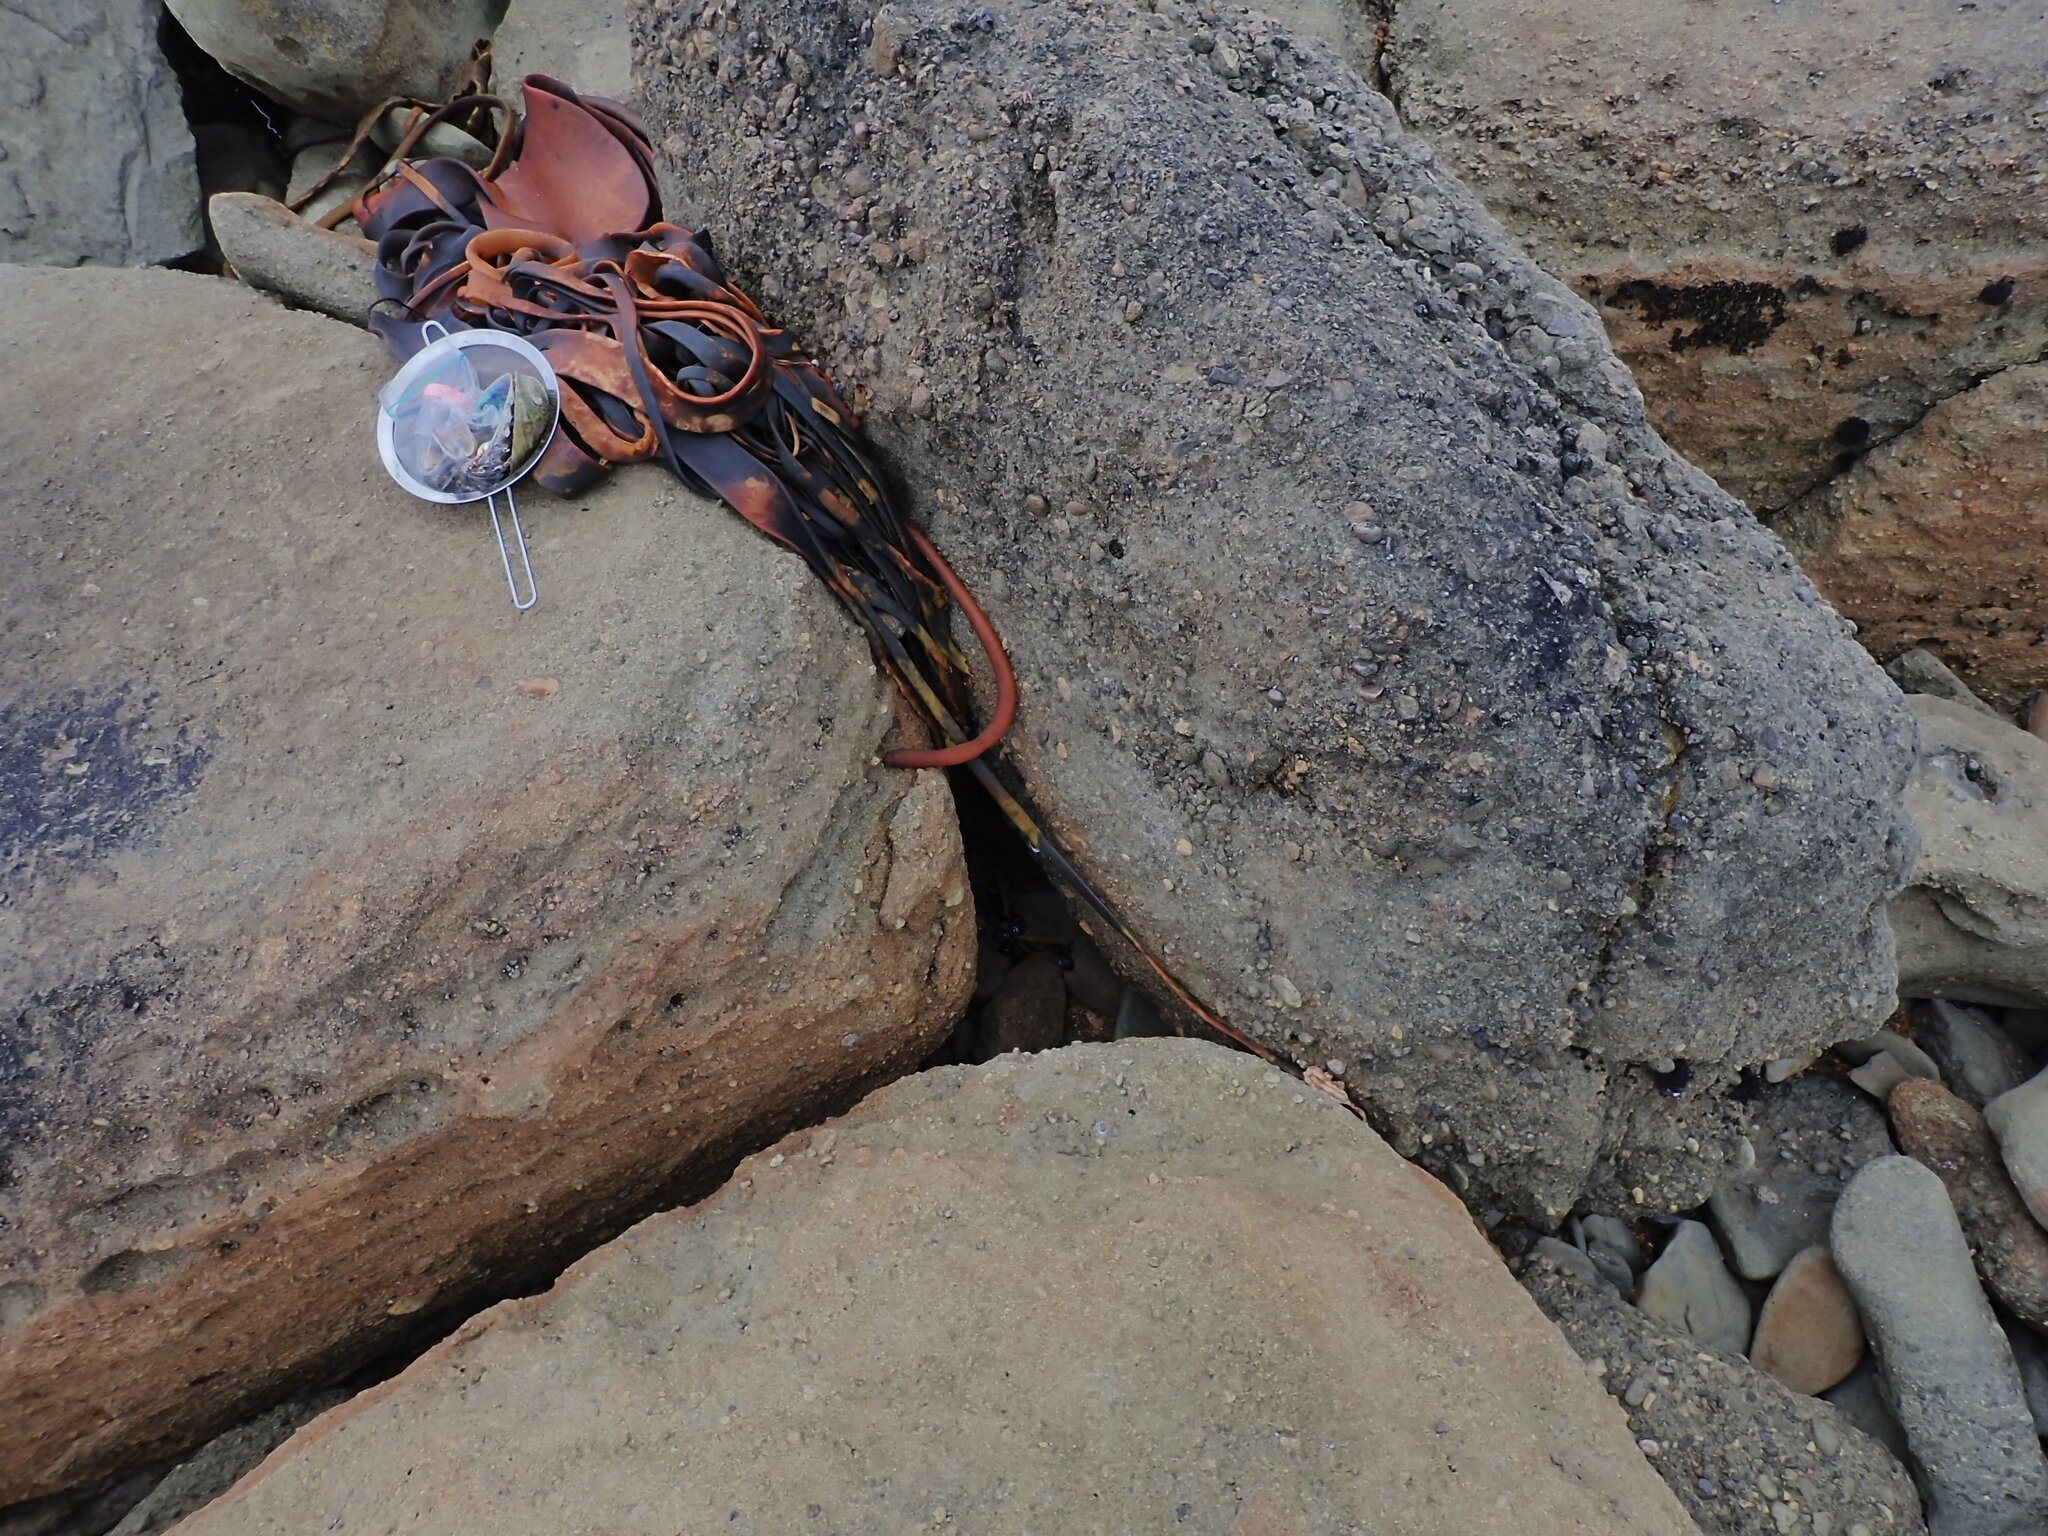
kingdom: Animalia
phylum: Mollusca
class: Gastropoda
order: Trochida
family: Trochidae
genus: Diloma
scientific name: Diloma nigerrimum
